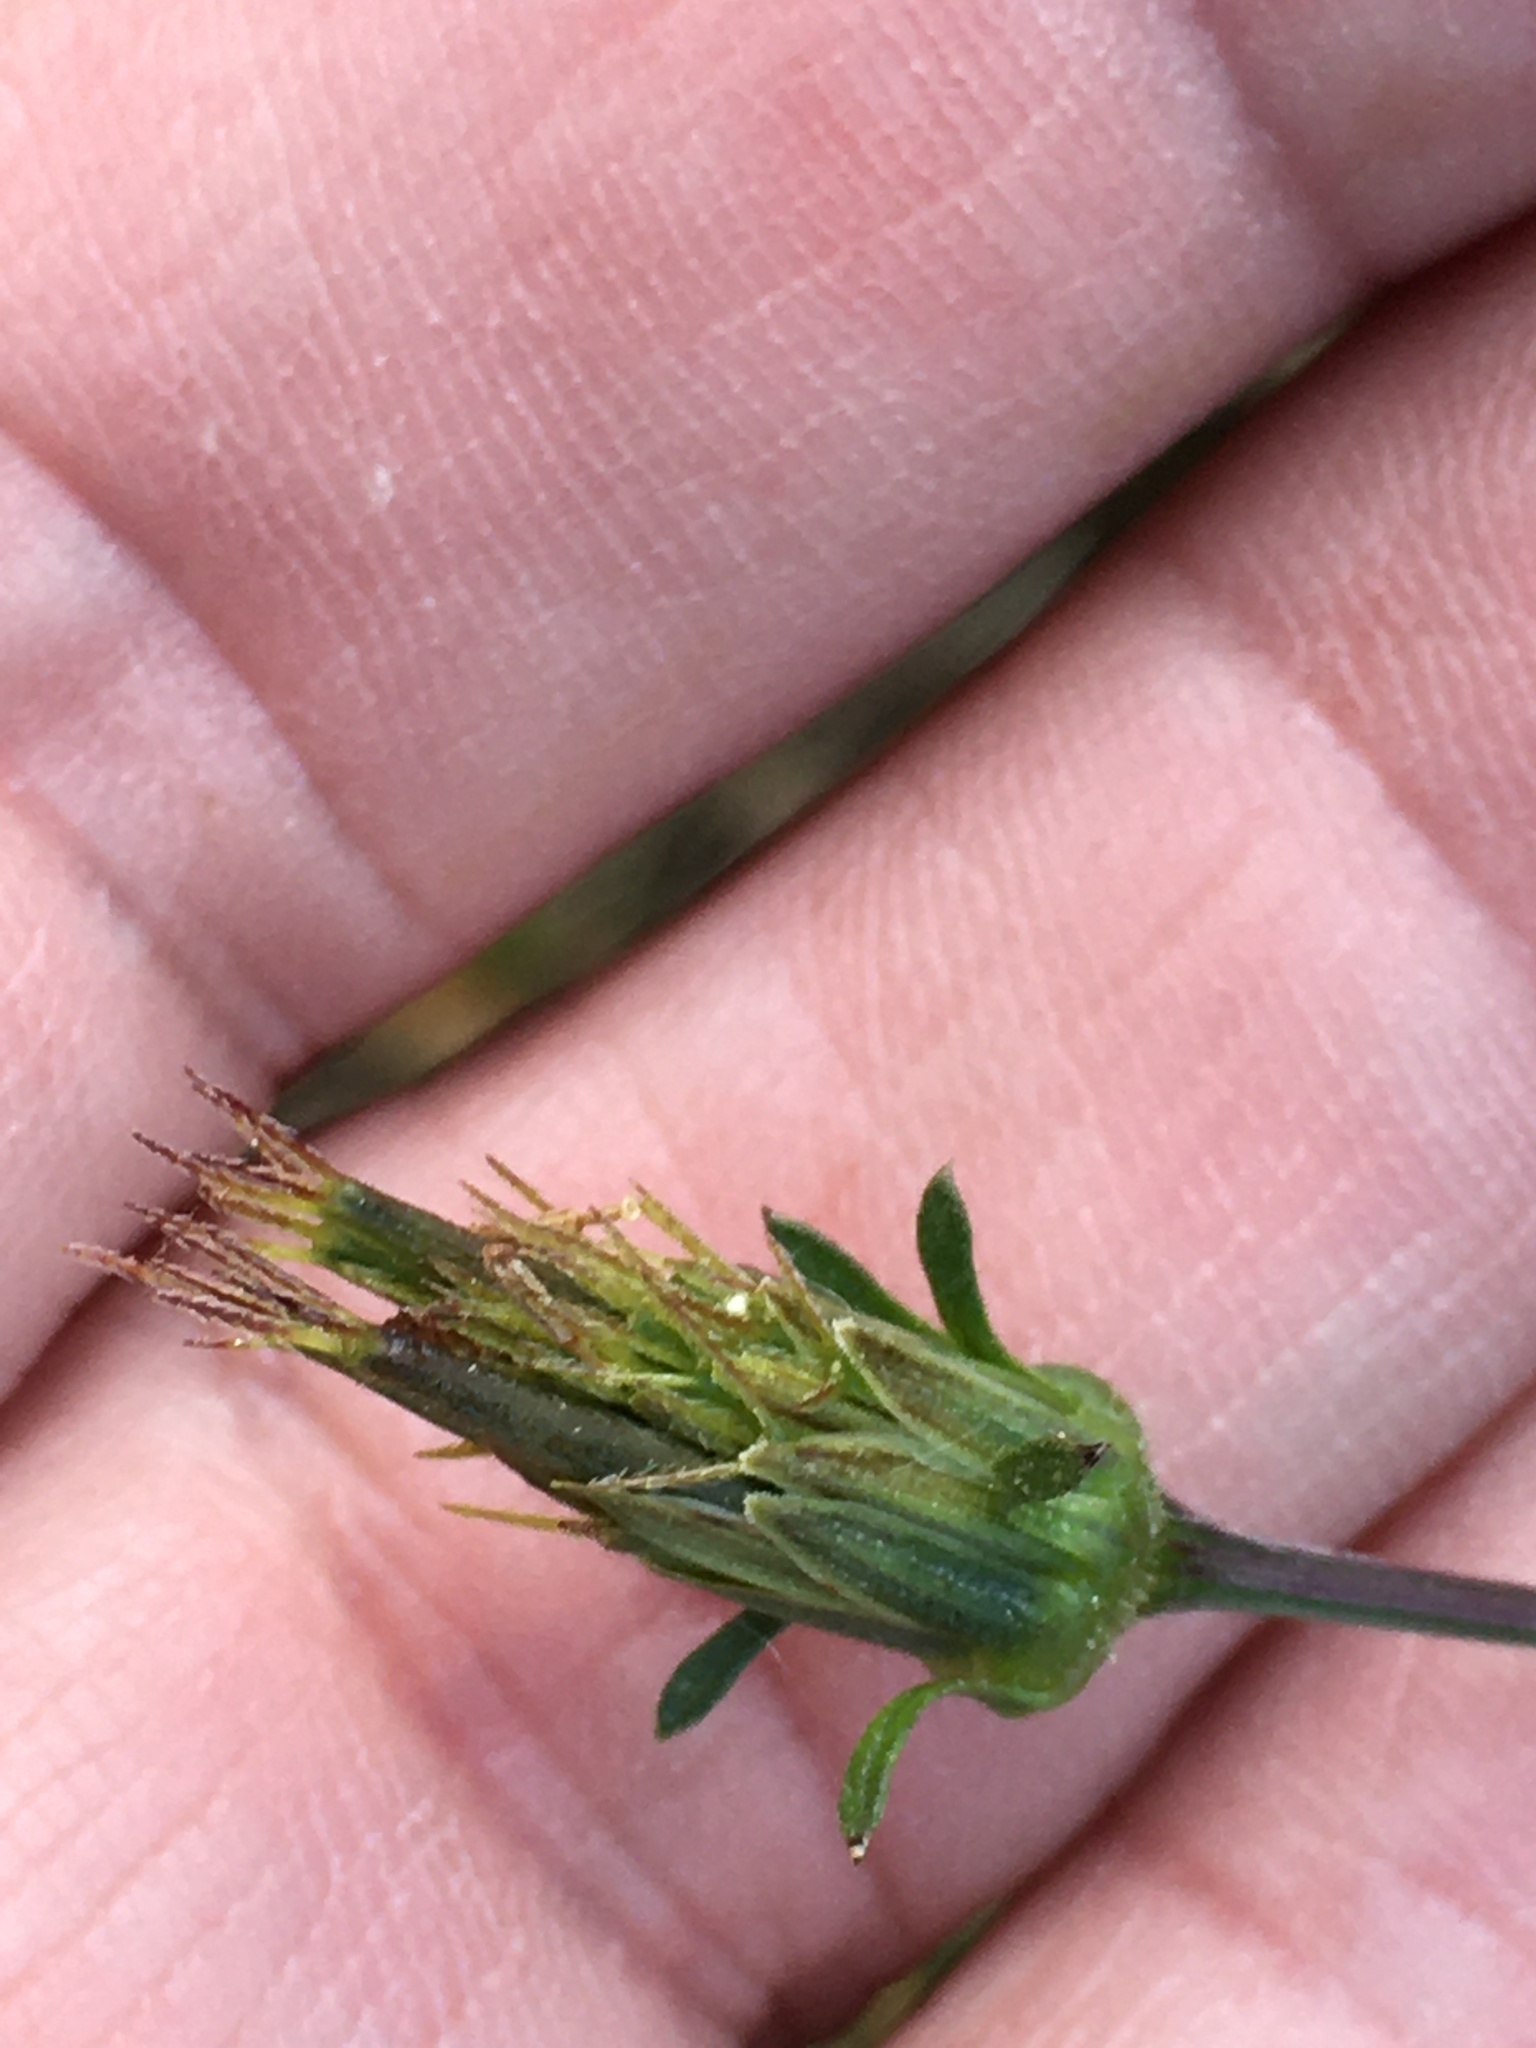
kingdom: Plantae
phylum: Tracheophyta
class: Magnoliopsida
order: Asterales
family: Asteraceae
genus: Bidens
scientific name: Bidens bipinnata
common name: Spanish-needles
